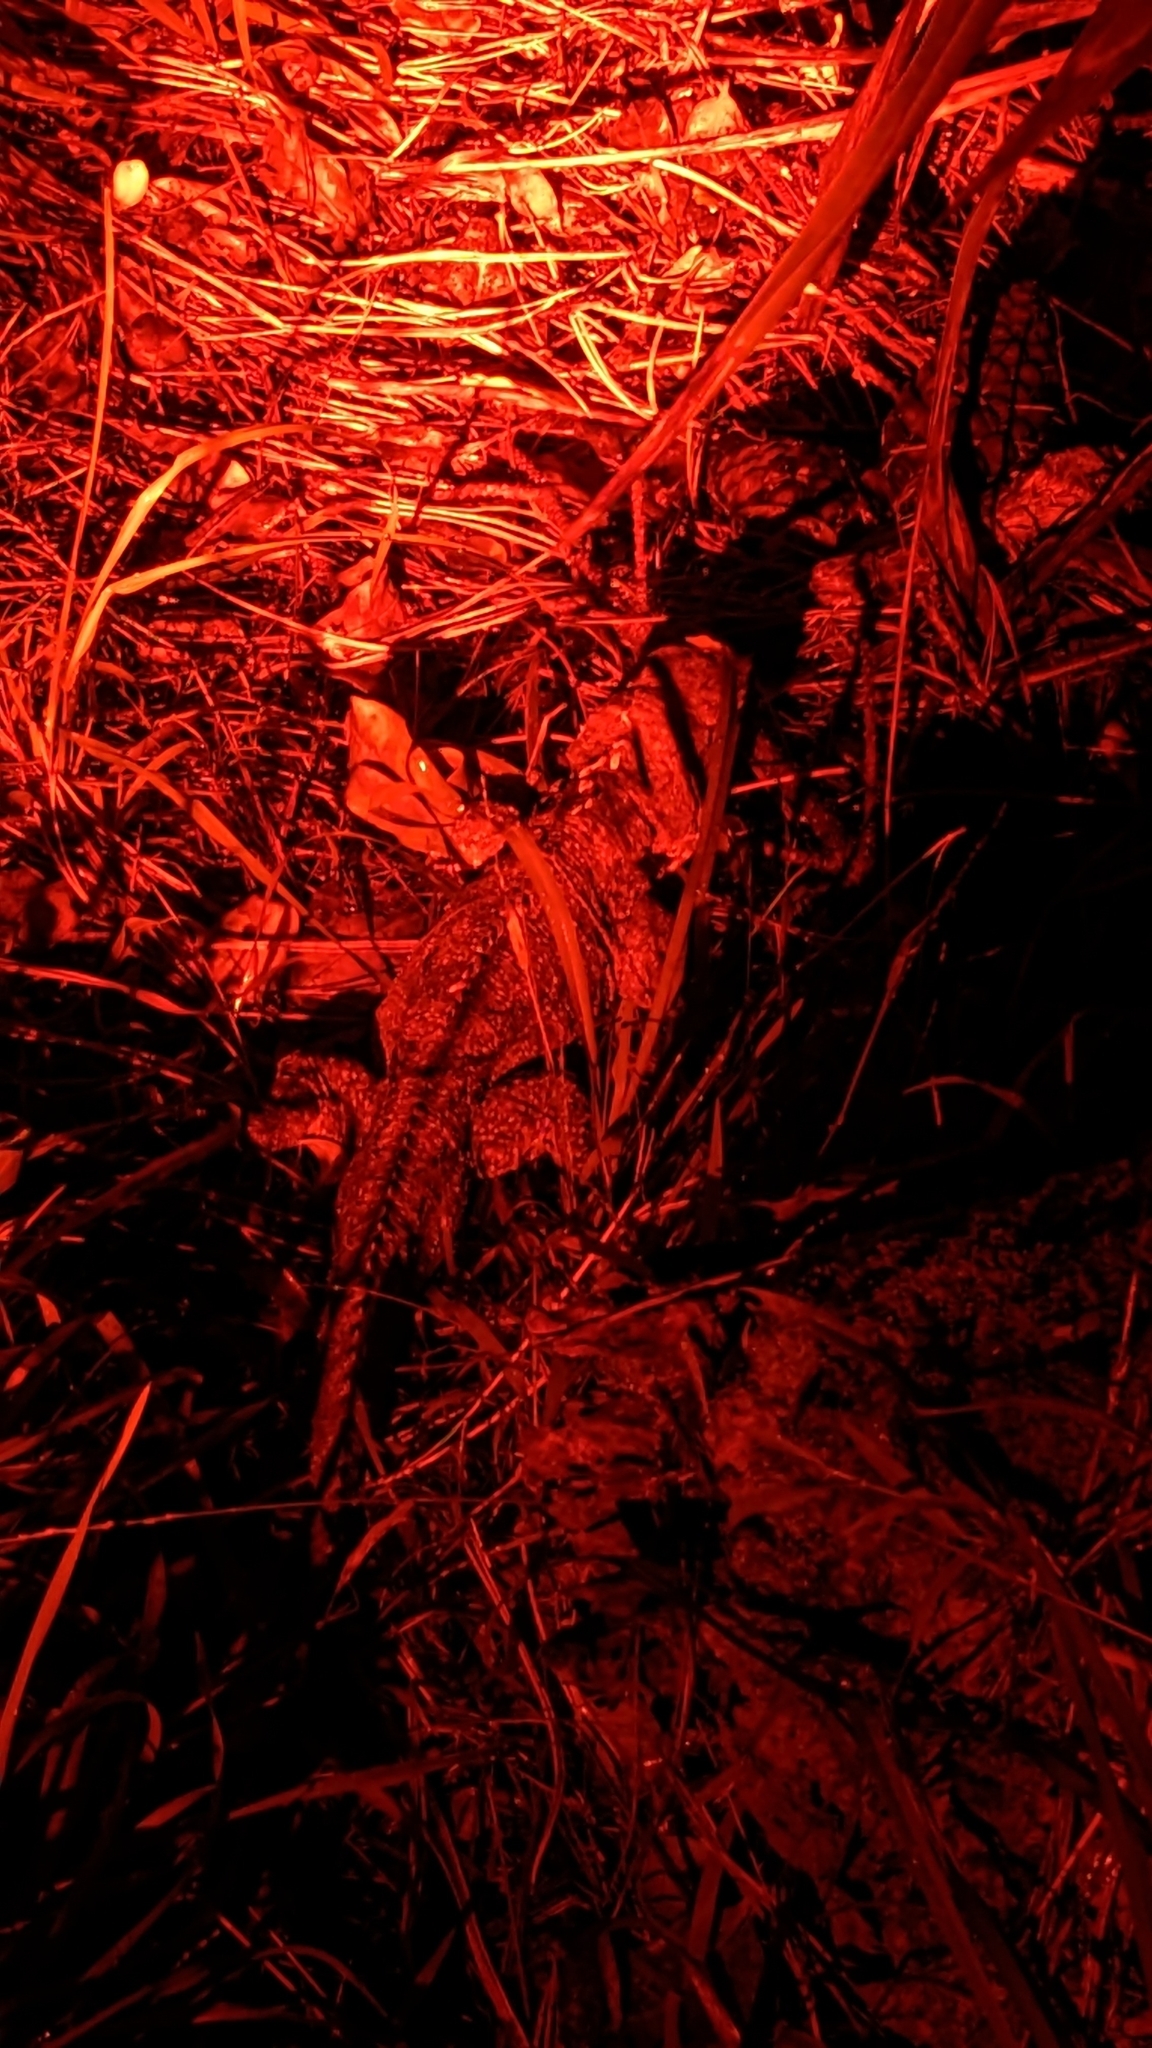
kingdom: Animalia
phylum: Chordata
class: Sphenodontia
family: Sphenodontidae
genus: Sphenodon
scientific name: Sphenodon punctatus
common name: Tuatara
